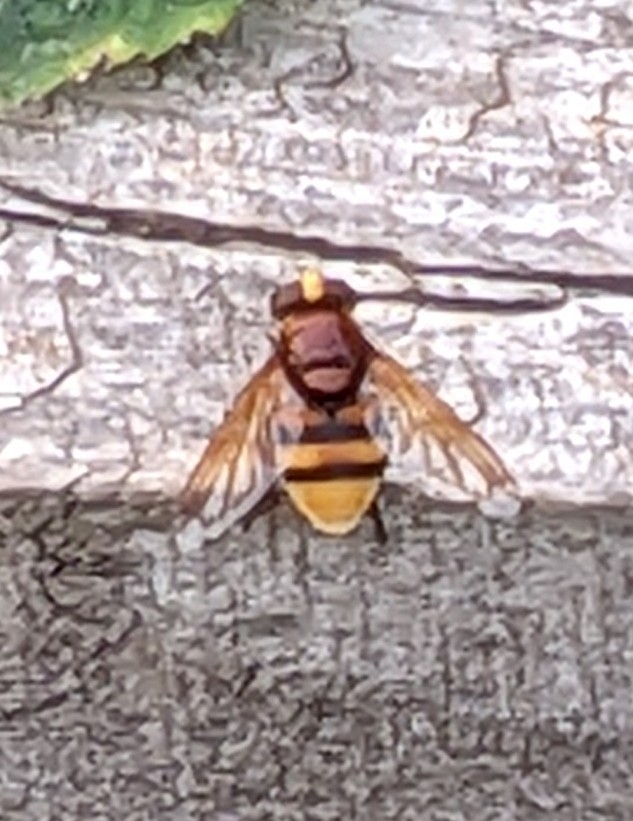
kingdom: Animalia
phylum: Arthropoda
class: Insecta
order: Diptera
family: Syrphidae
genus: Volucella
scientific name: Volucella zonaria
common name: Hornet hoverfly
